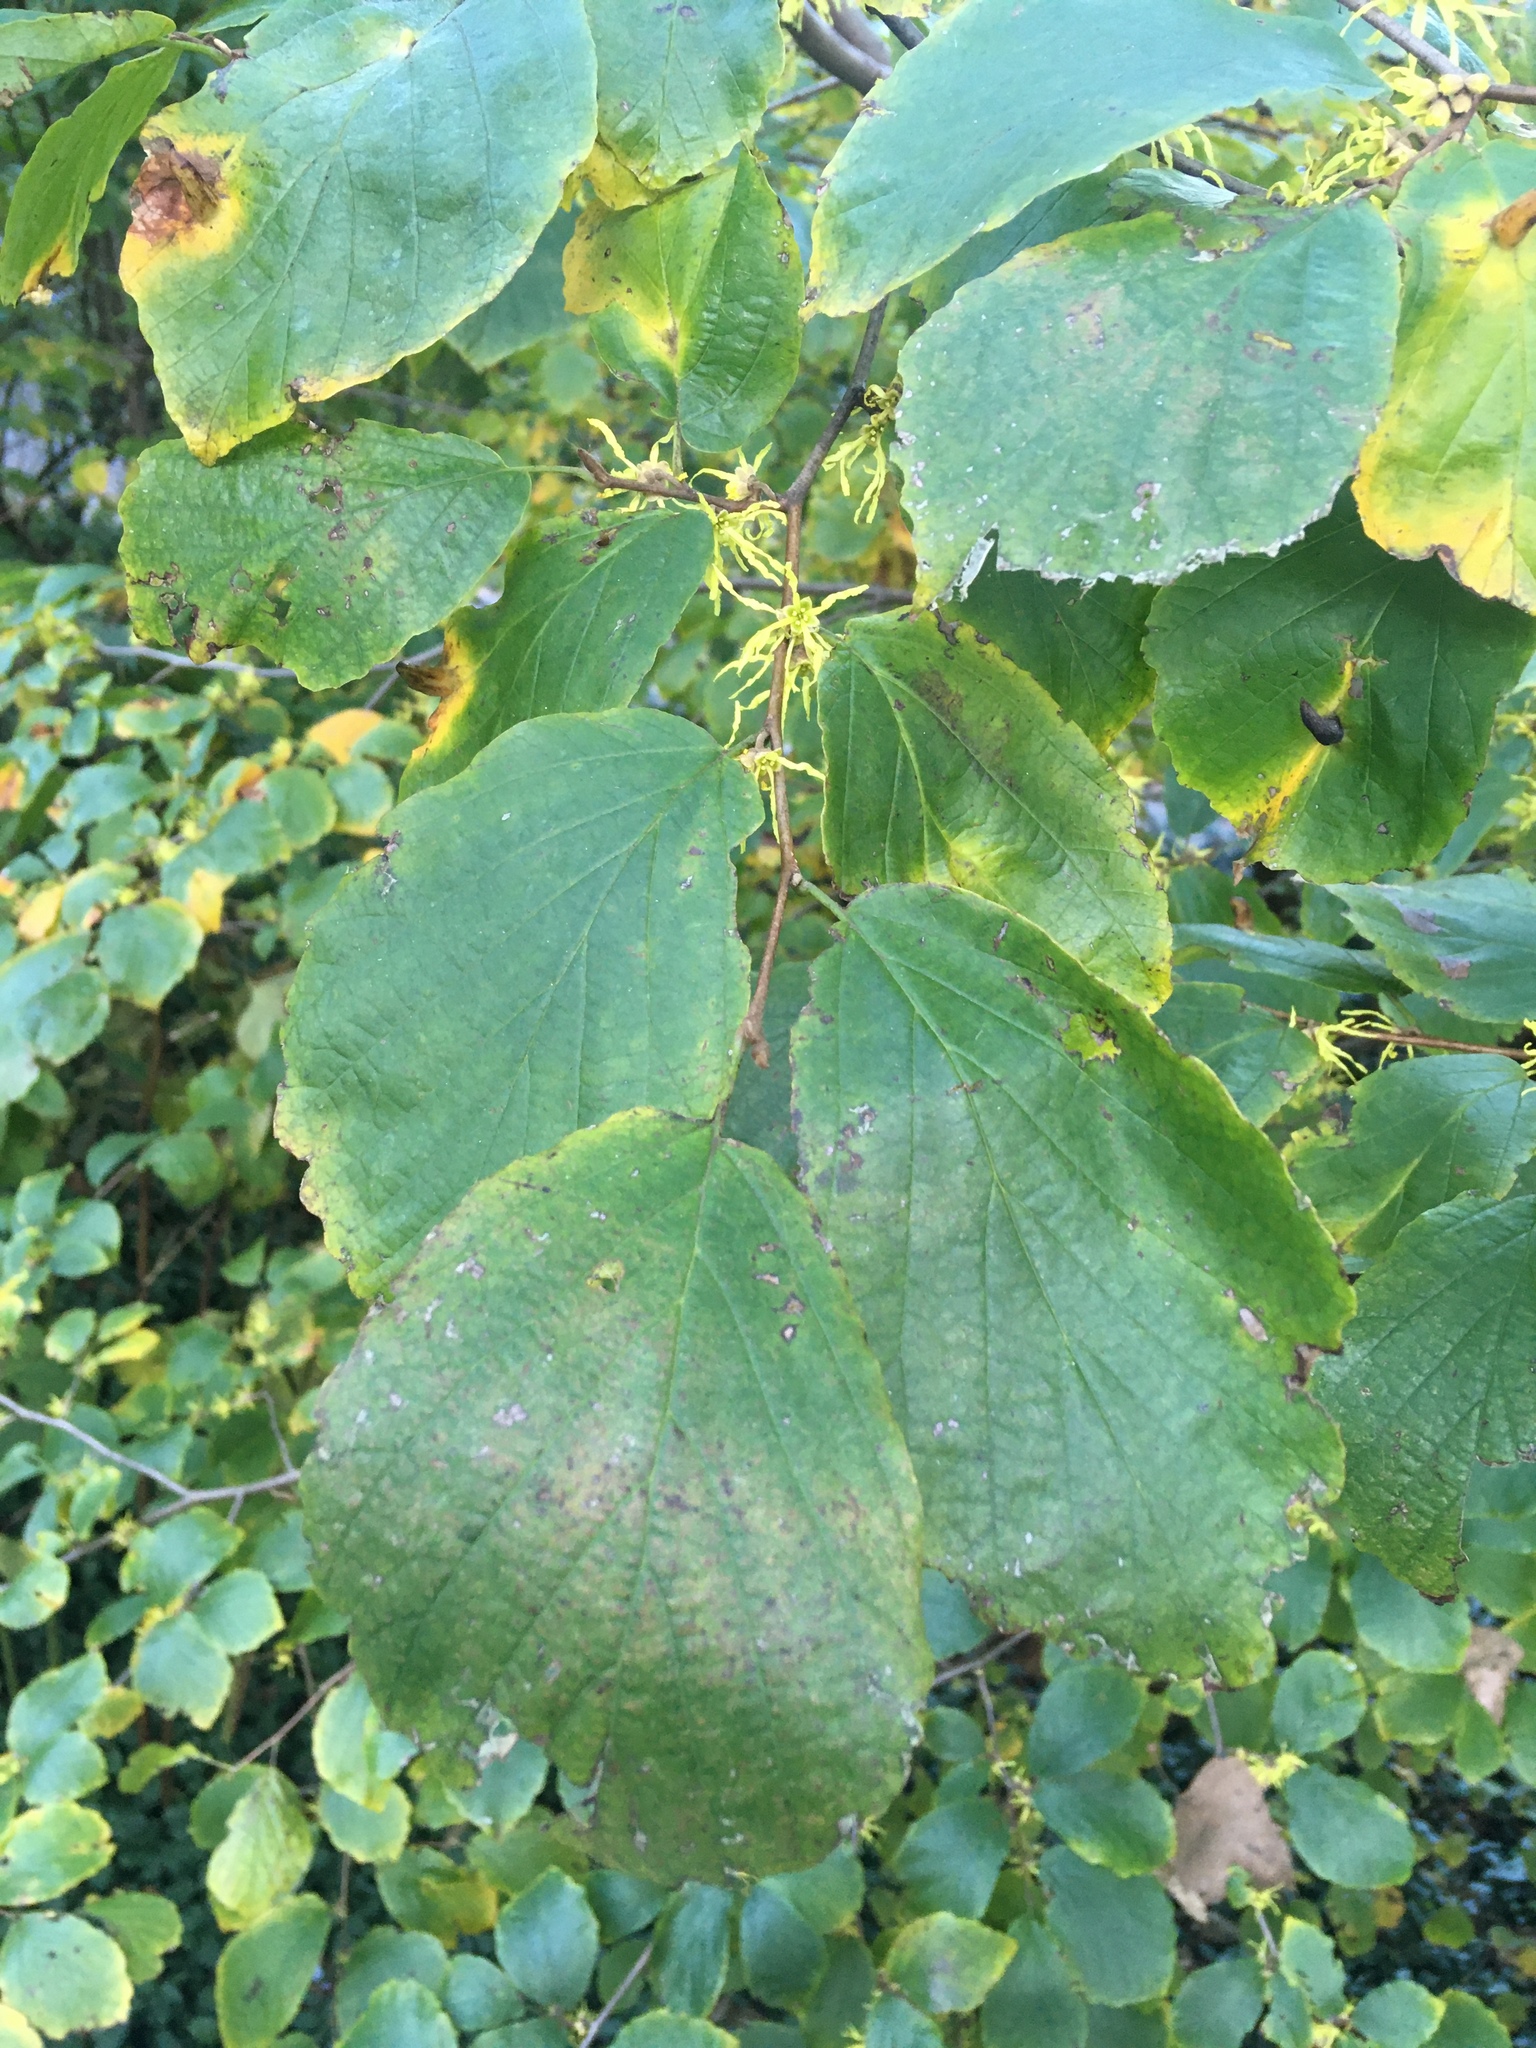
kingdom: Plantae
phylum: Tracheophyta
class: Magnoliopsida
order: Saxifragales
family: Hamamelidaceae
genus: Hamamelis
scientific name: Hamamelis virginiana
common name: Witch-hazel
